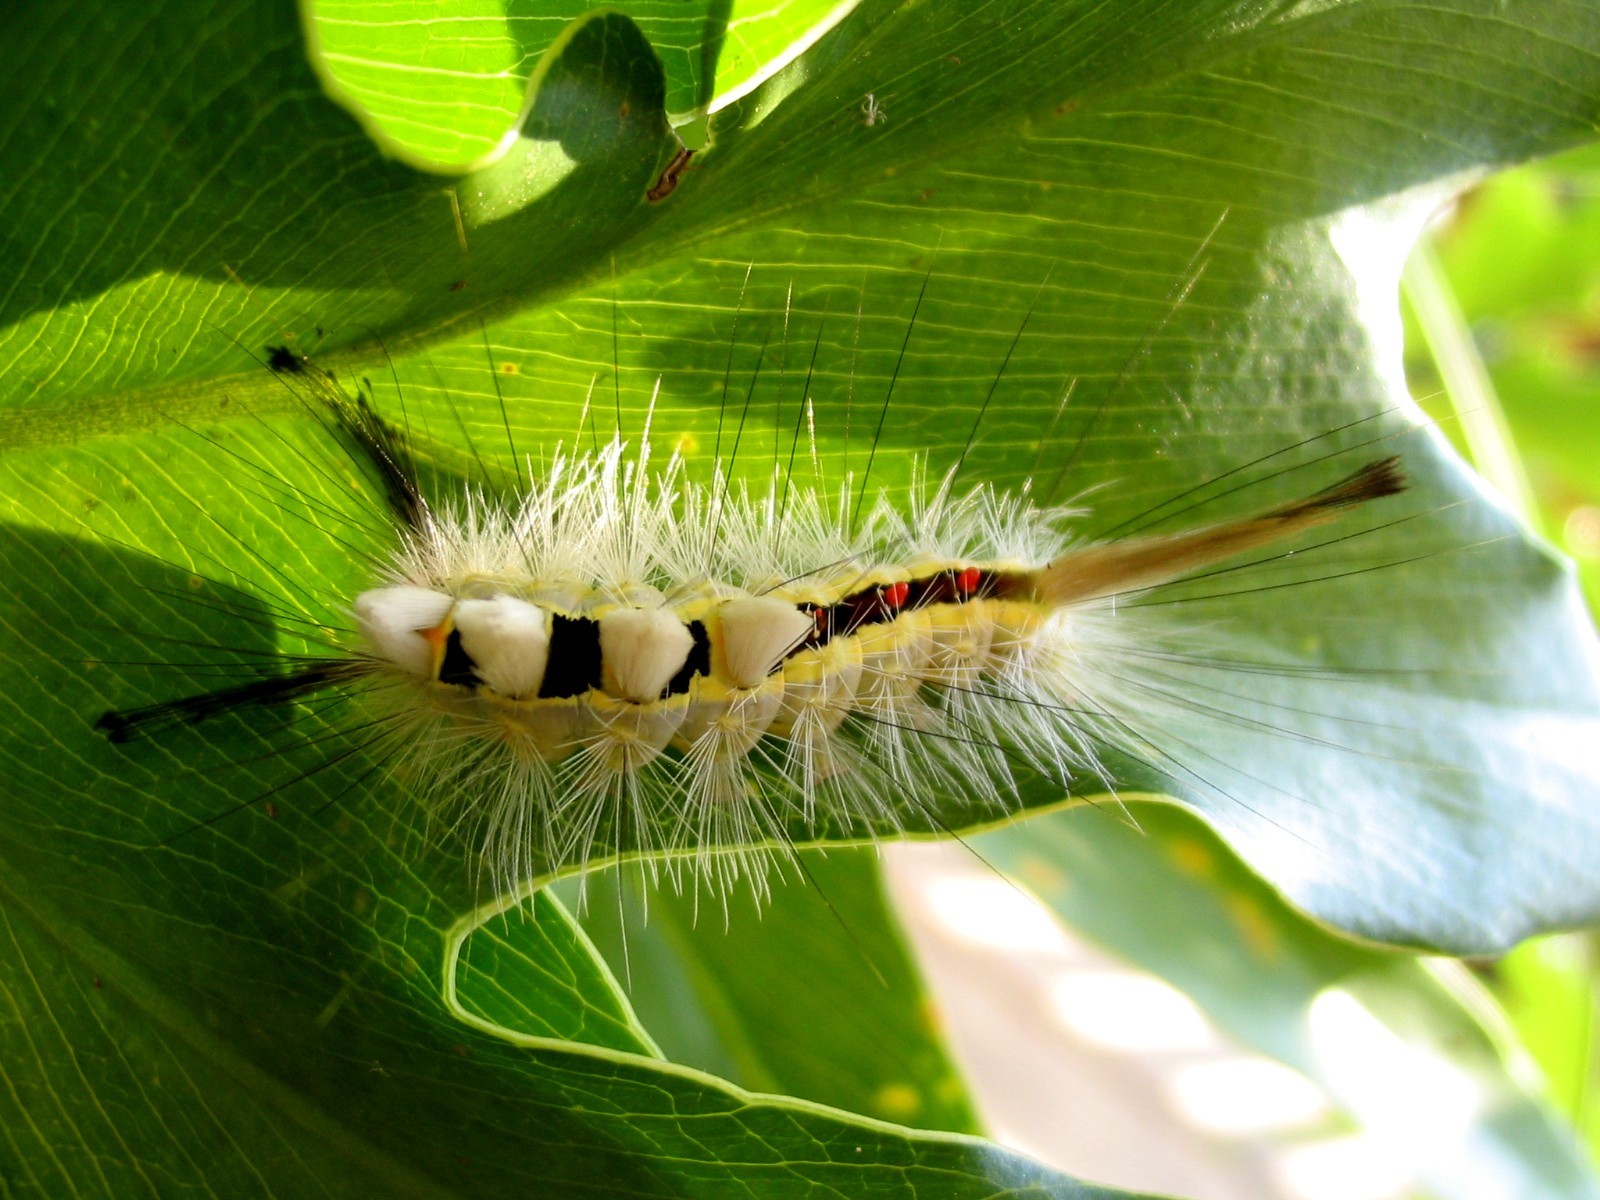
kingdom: Animalia
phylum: Arthropoda
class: Insecta
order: Lepidoptera
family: Erebidae
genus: Orgyia
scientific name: Orgyia leucostigma
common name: White-marked tussock moth
